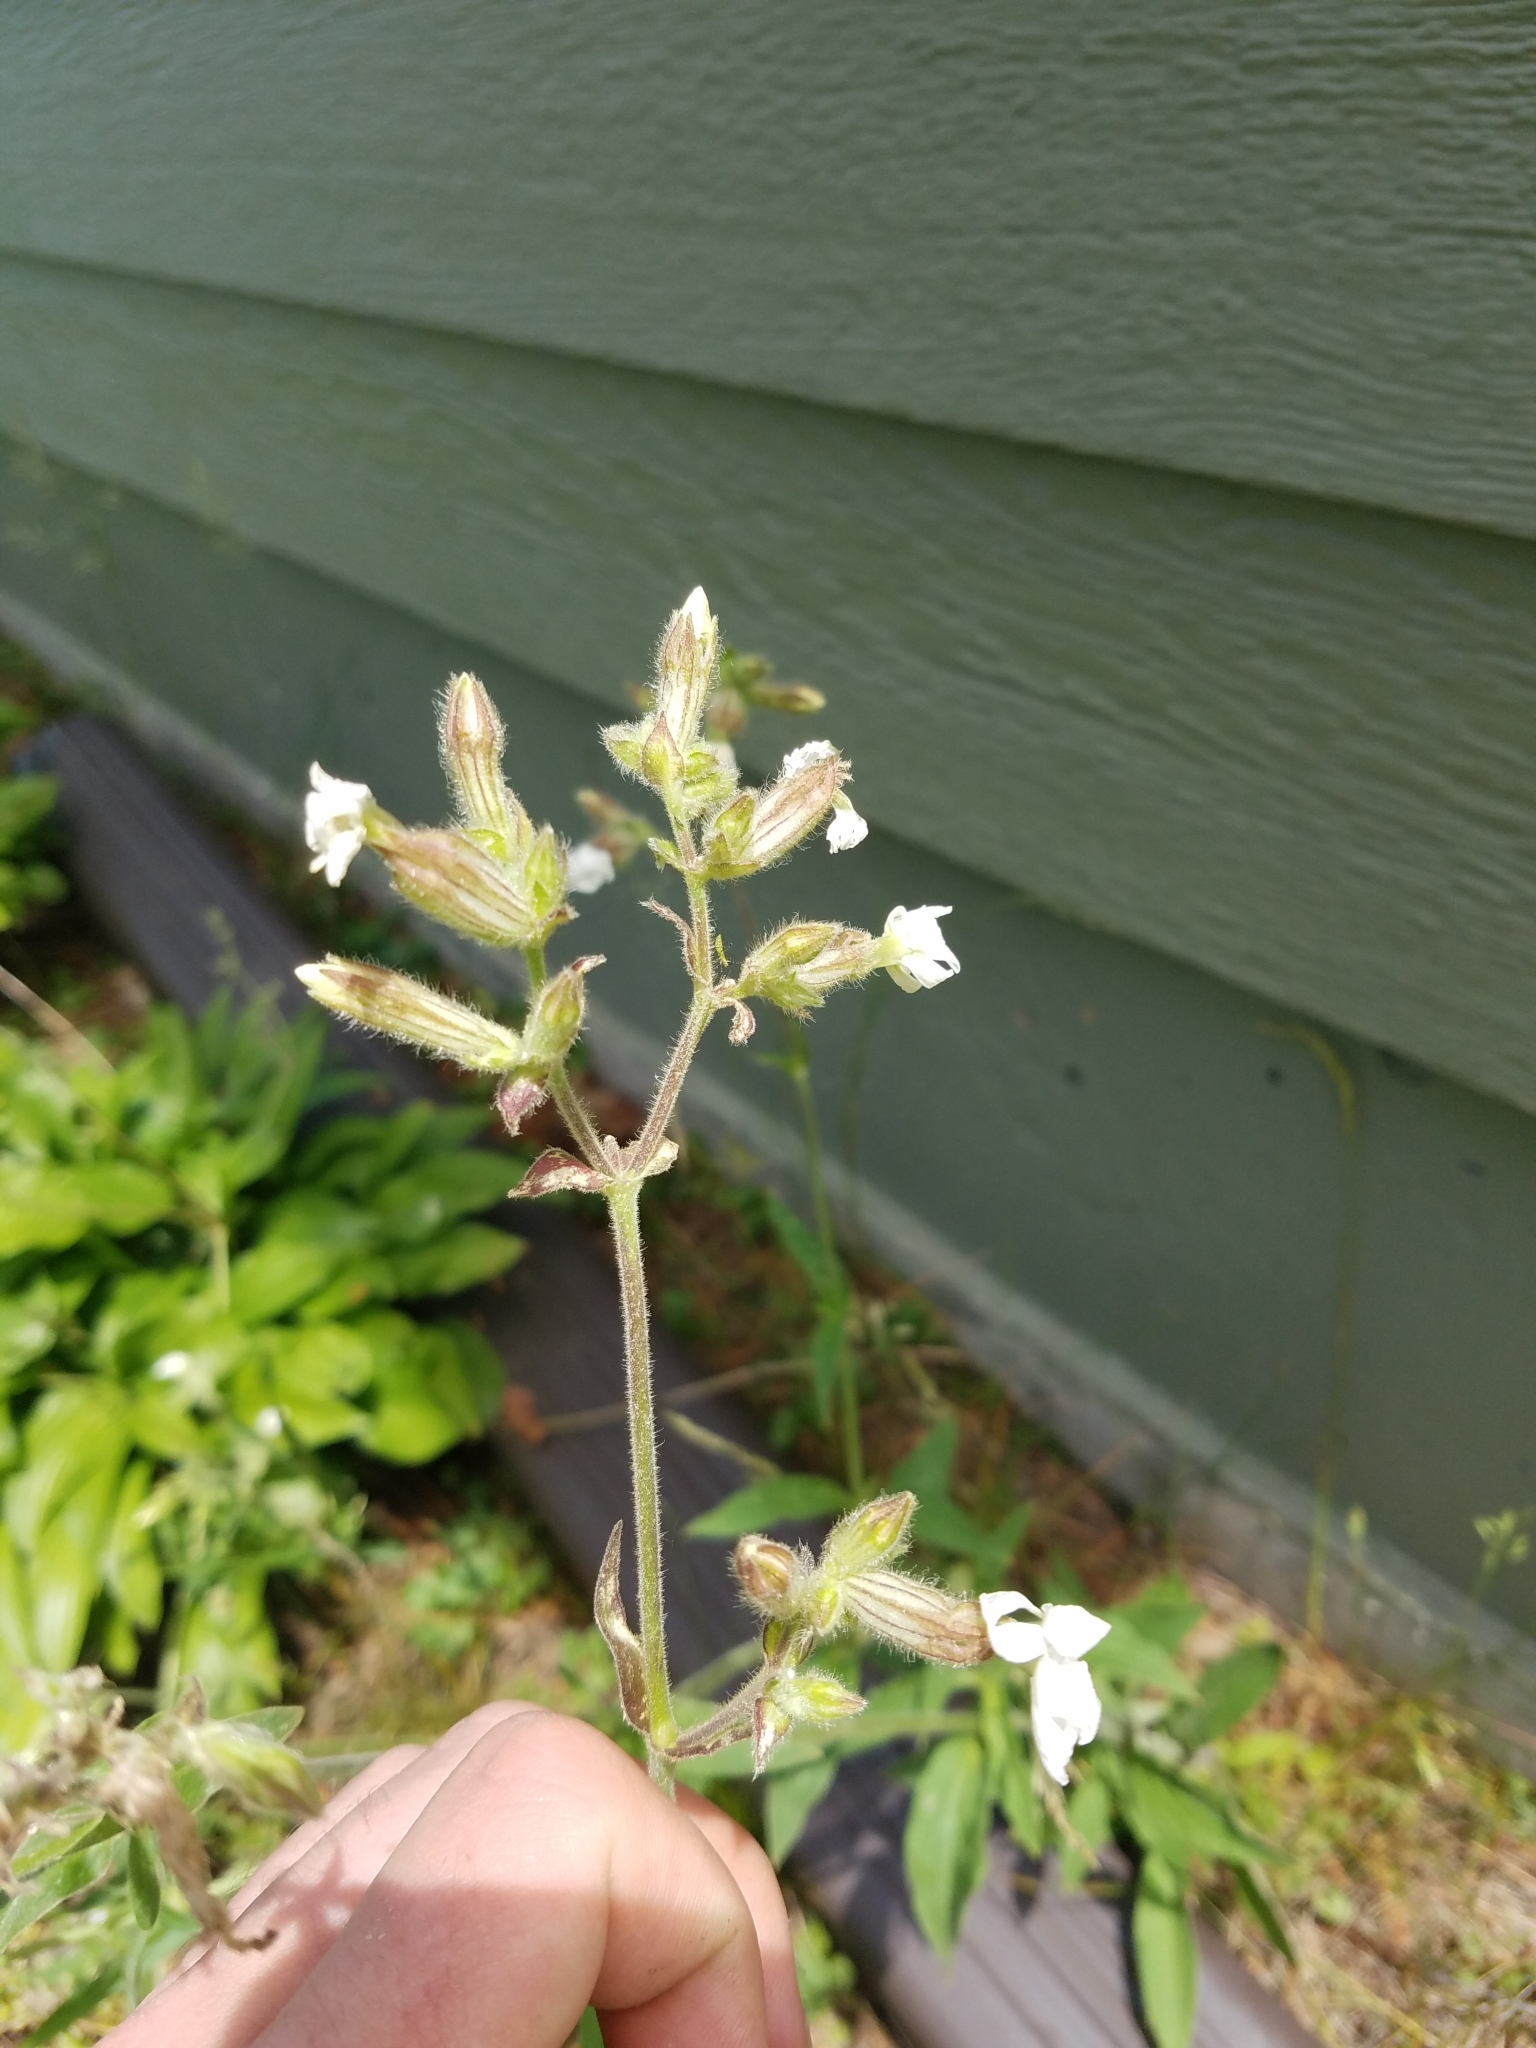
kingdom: Plantae
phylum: Tracheophyta
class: Magnoliopsida
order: Caryophyllales
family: Caryophyllaceae
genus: Silene
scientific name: Silene latifolia
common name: White campion
